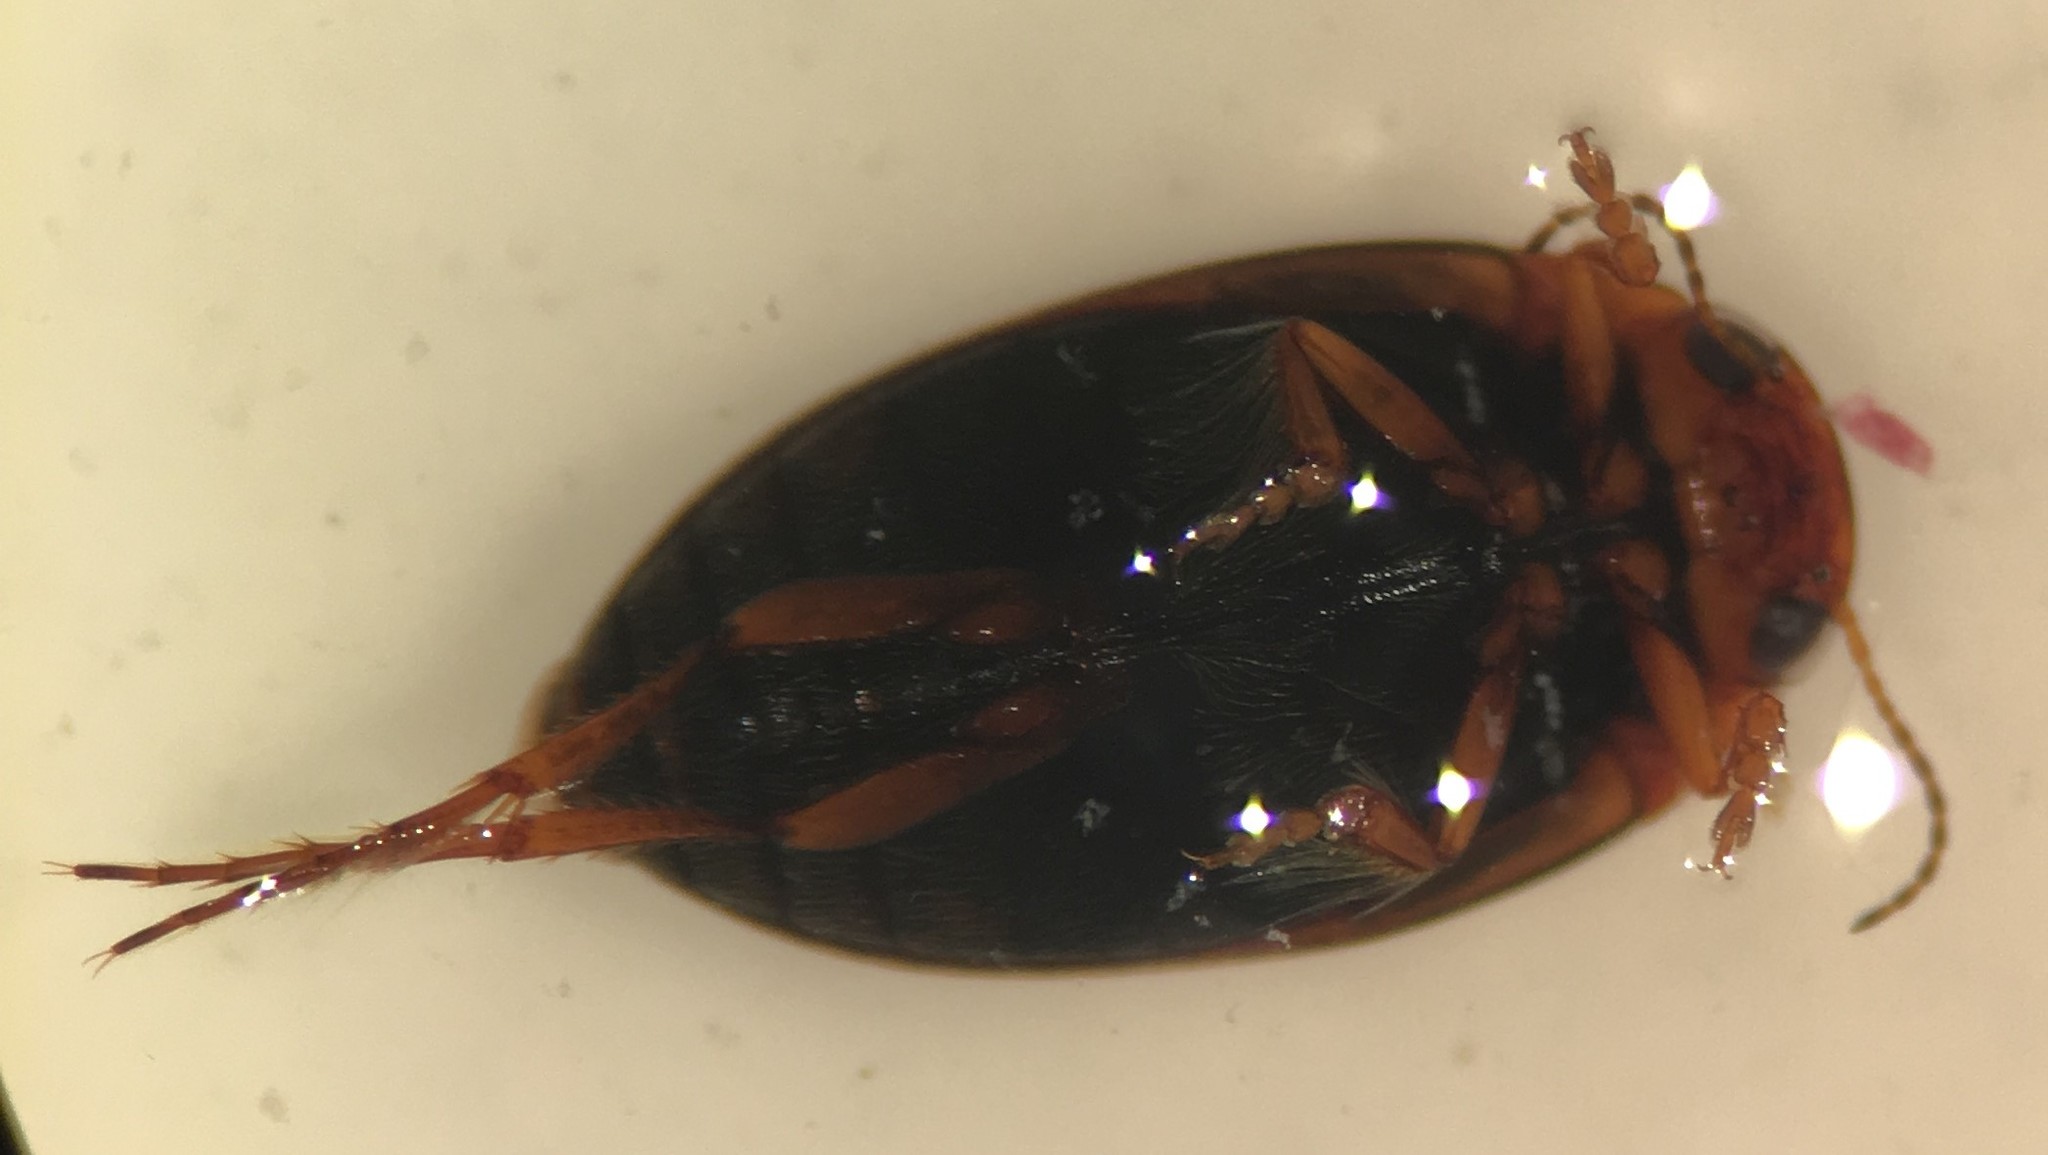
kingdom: Animalia
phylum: Arthropoda
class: Insecta
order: Coleoptera
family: Dytiscidae
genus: Hydroporus
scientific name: Hydroporus rufilabris
